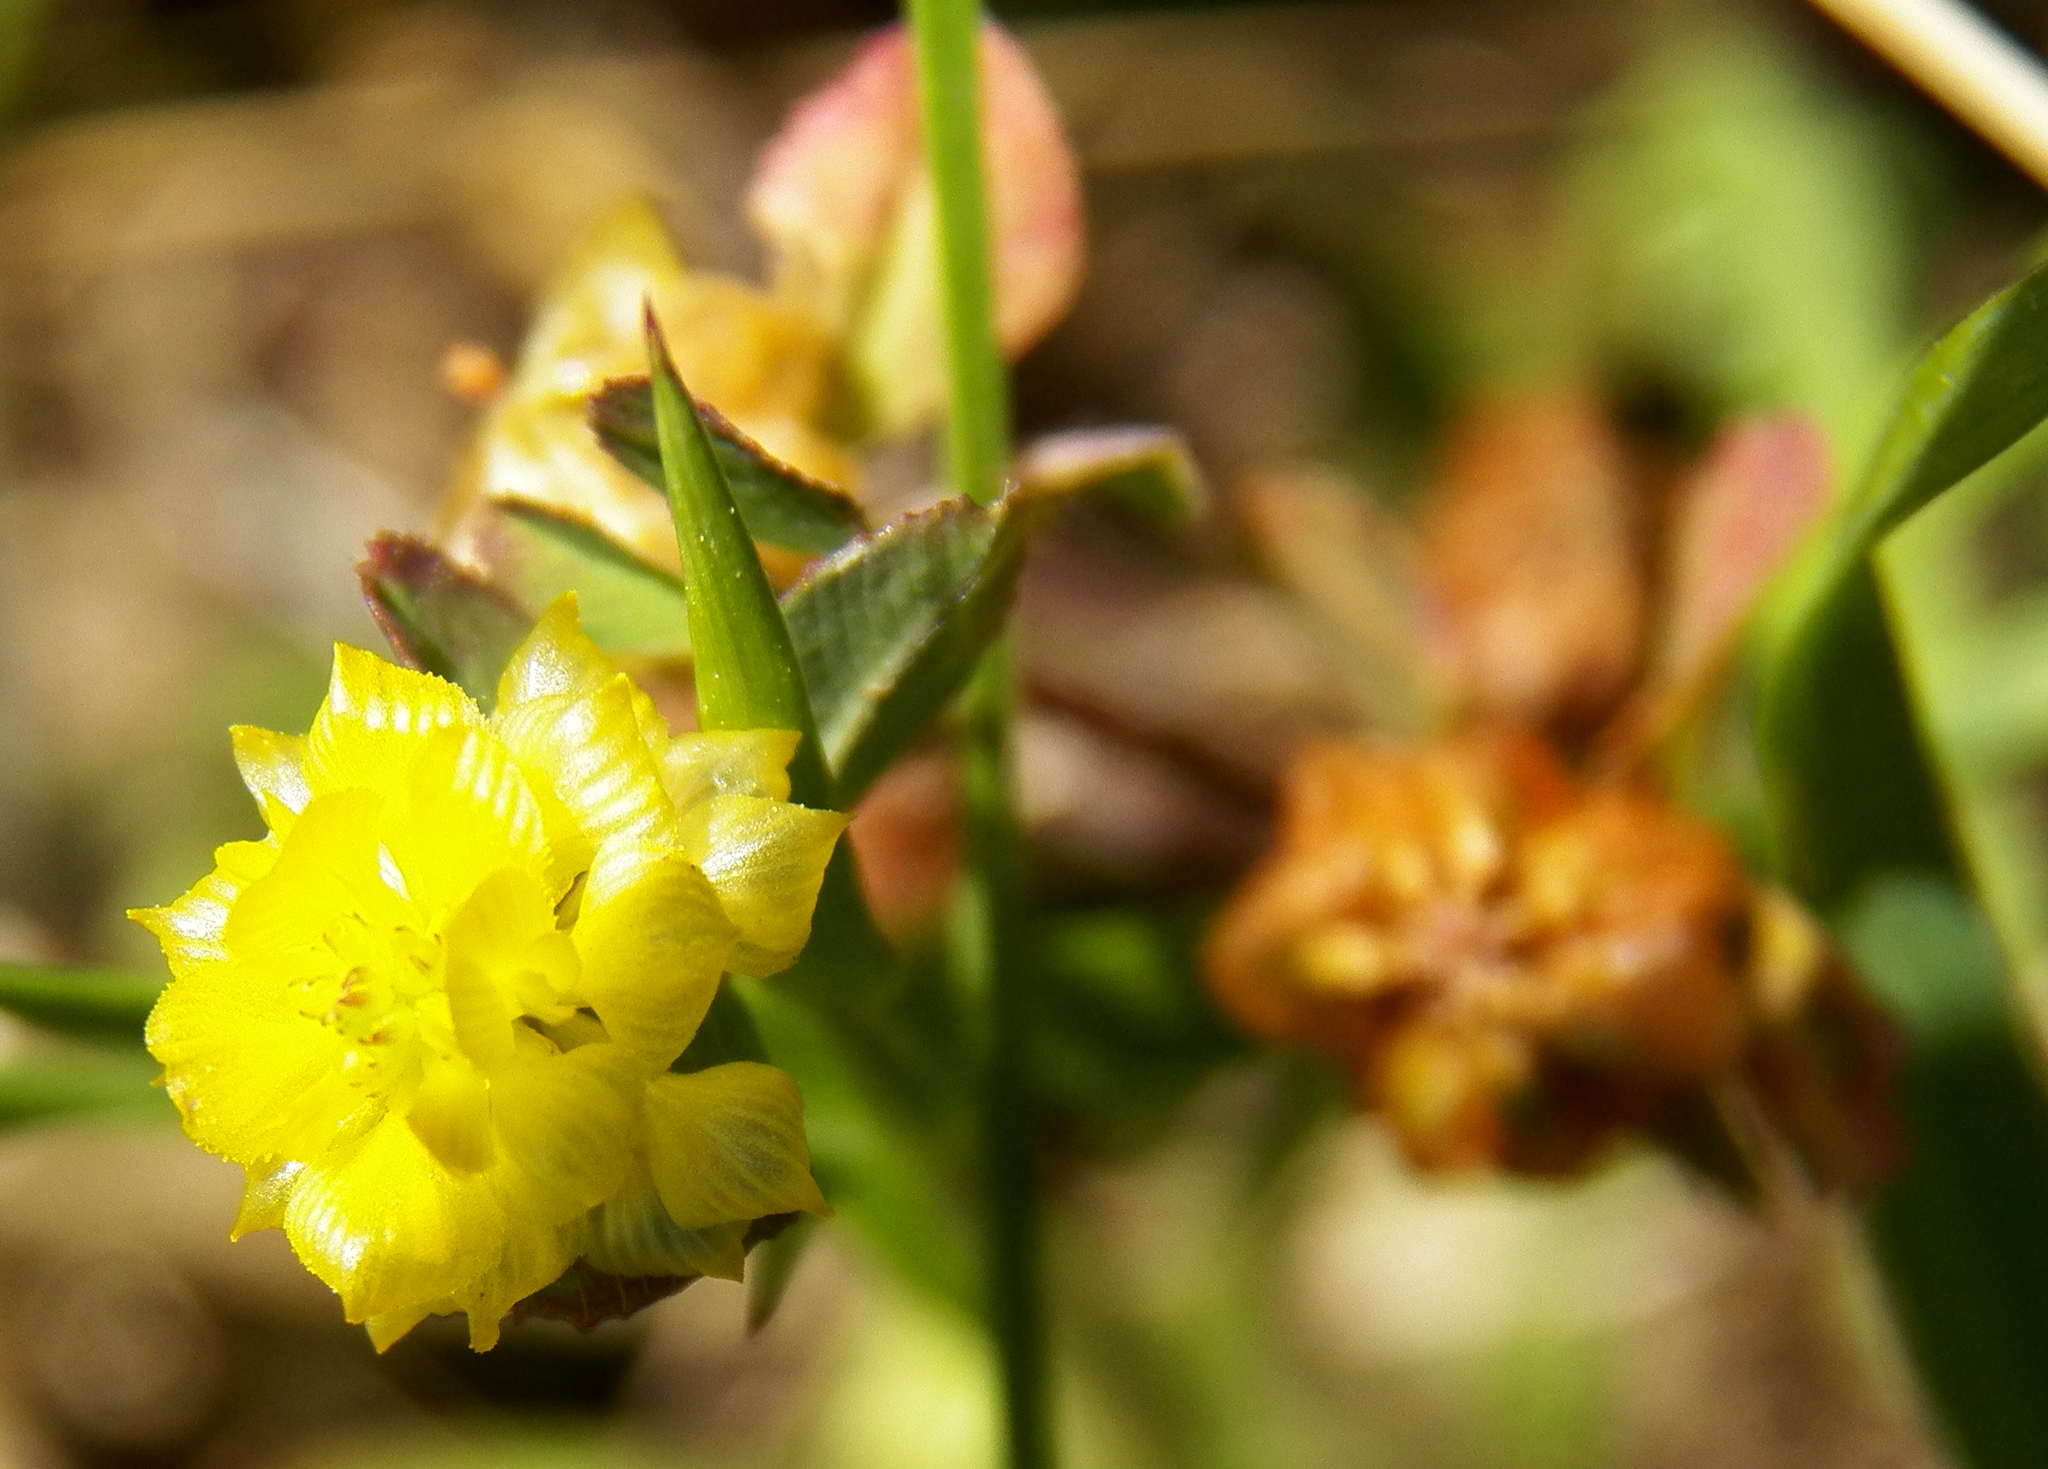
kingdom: Plantae
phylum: Tracheophyta
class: Magnoliopsida
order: Fabales
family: Fabaceae
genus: Trifolium
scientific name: Trifolium campestre
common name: Field clover
